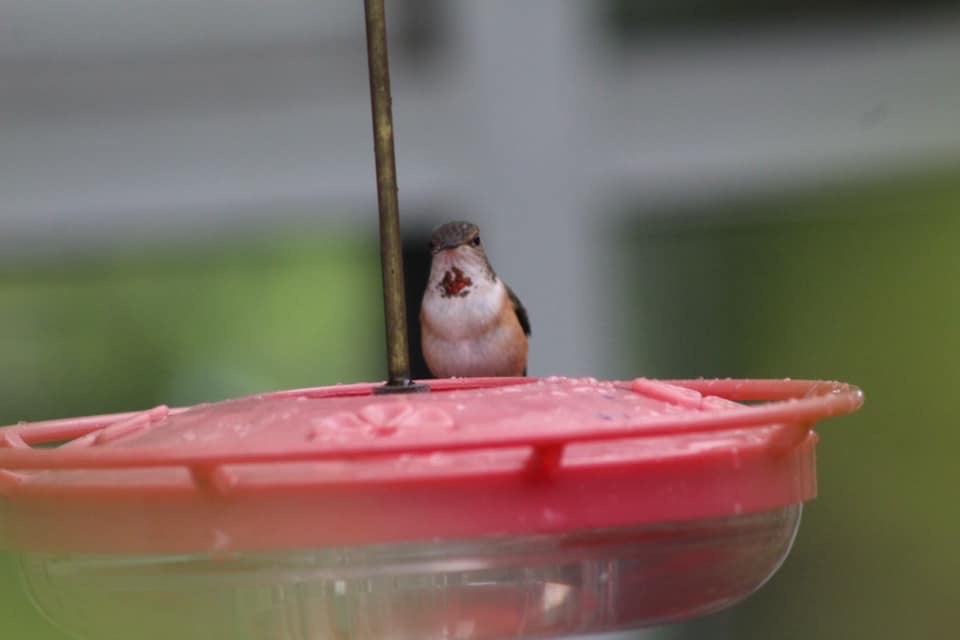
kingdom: Animalia
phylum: Chordata
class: Aves
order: Apodiformes
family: Trochilidae
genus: Selasphorus
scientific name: Selasphorus rufus
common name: Rufous hummingbird
